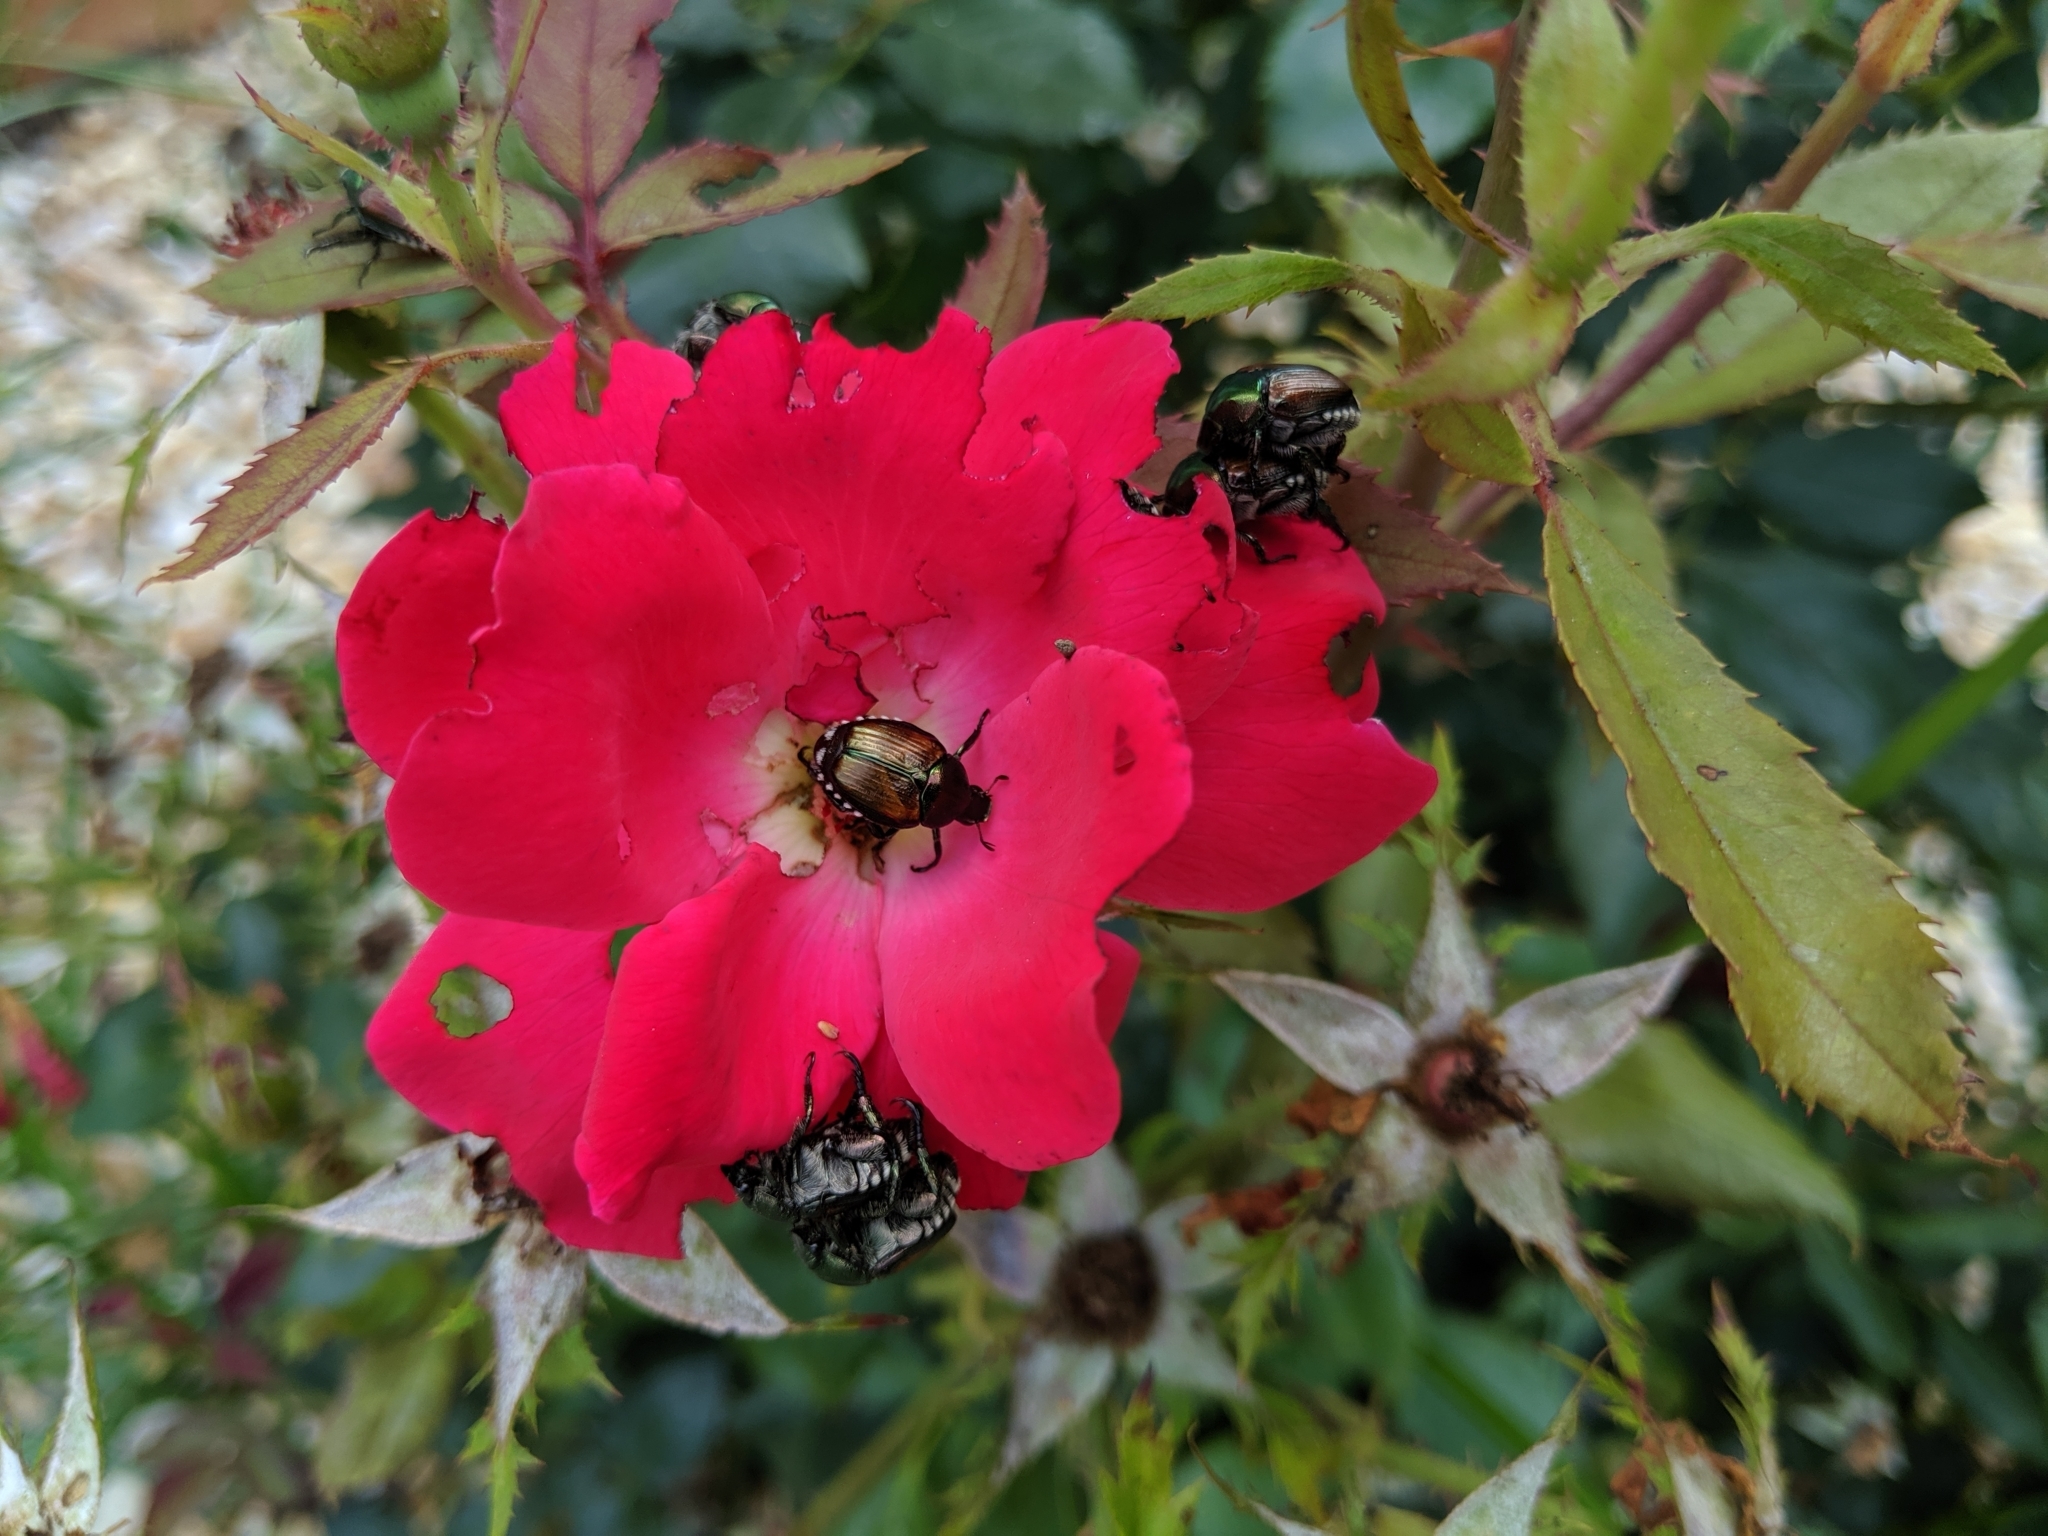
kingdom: Animalia
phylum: Arthropoda
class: Insecta
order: Coleoptera
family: Scarabaeidae
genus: Popillia
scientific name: Popillia japonica
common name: Japanese beetle
